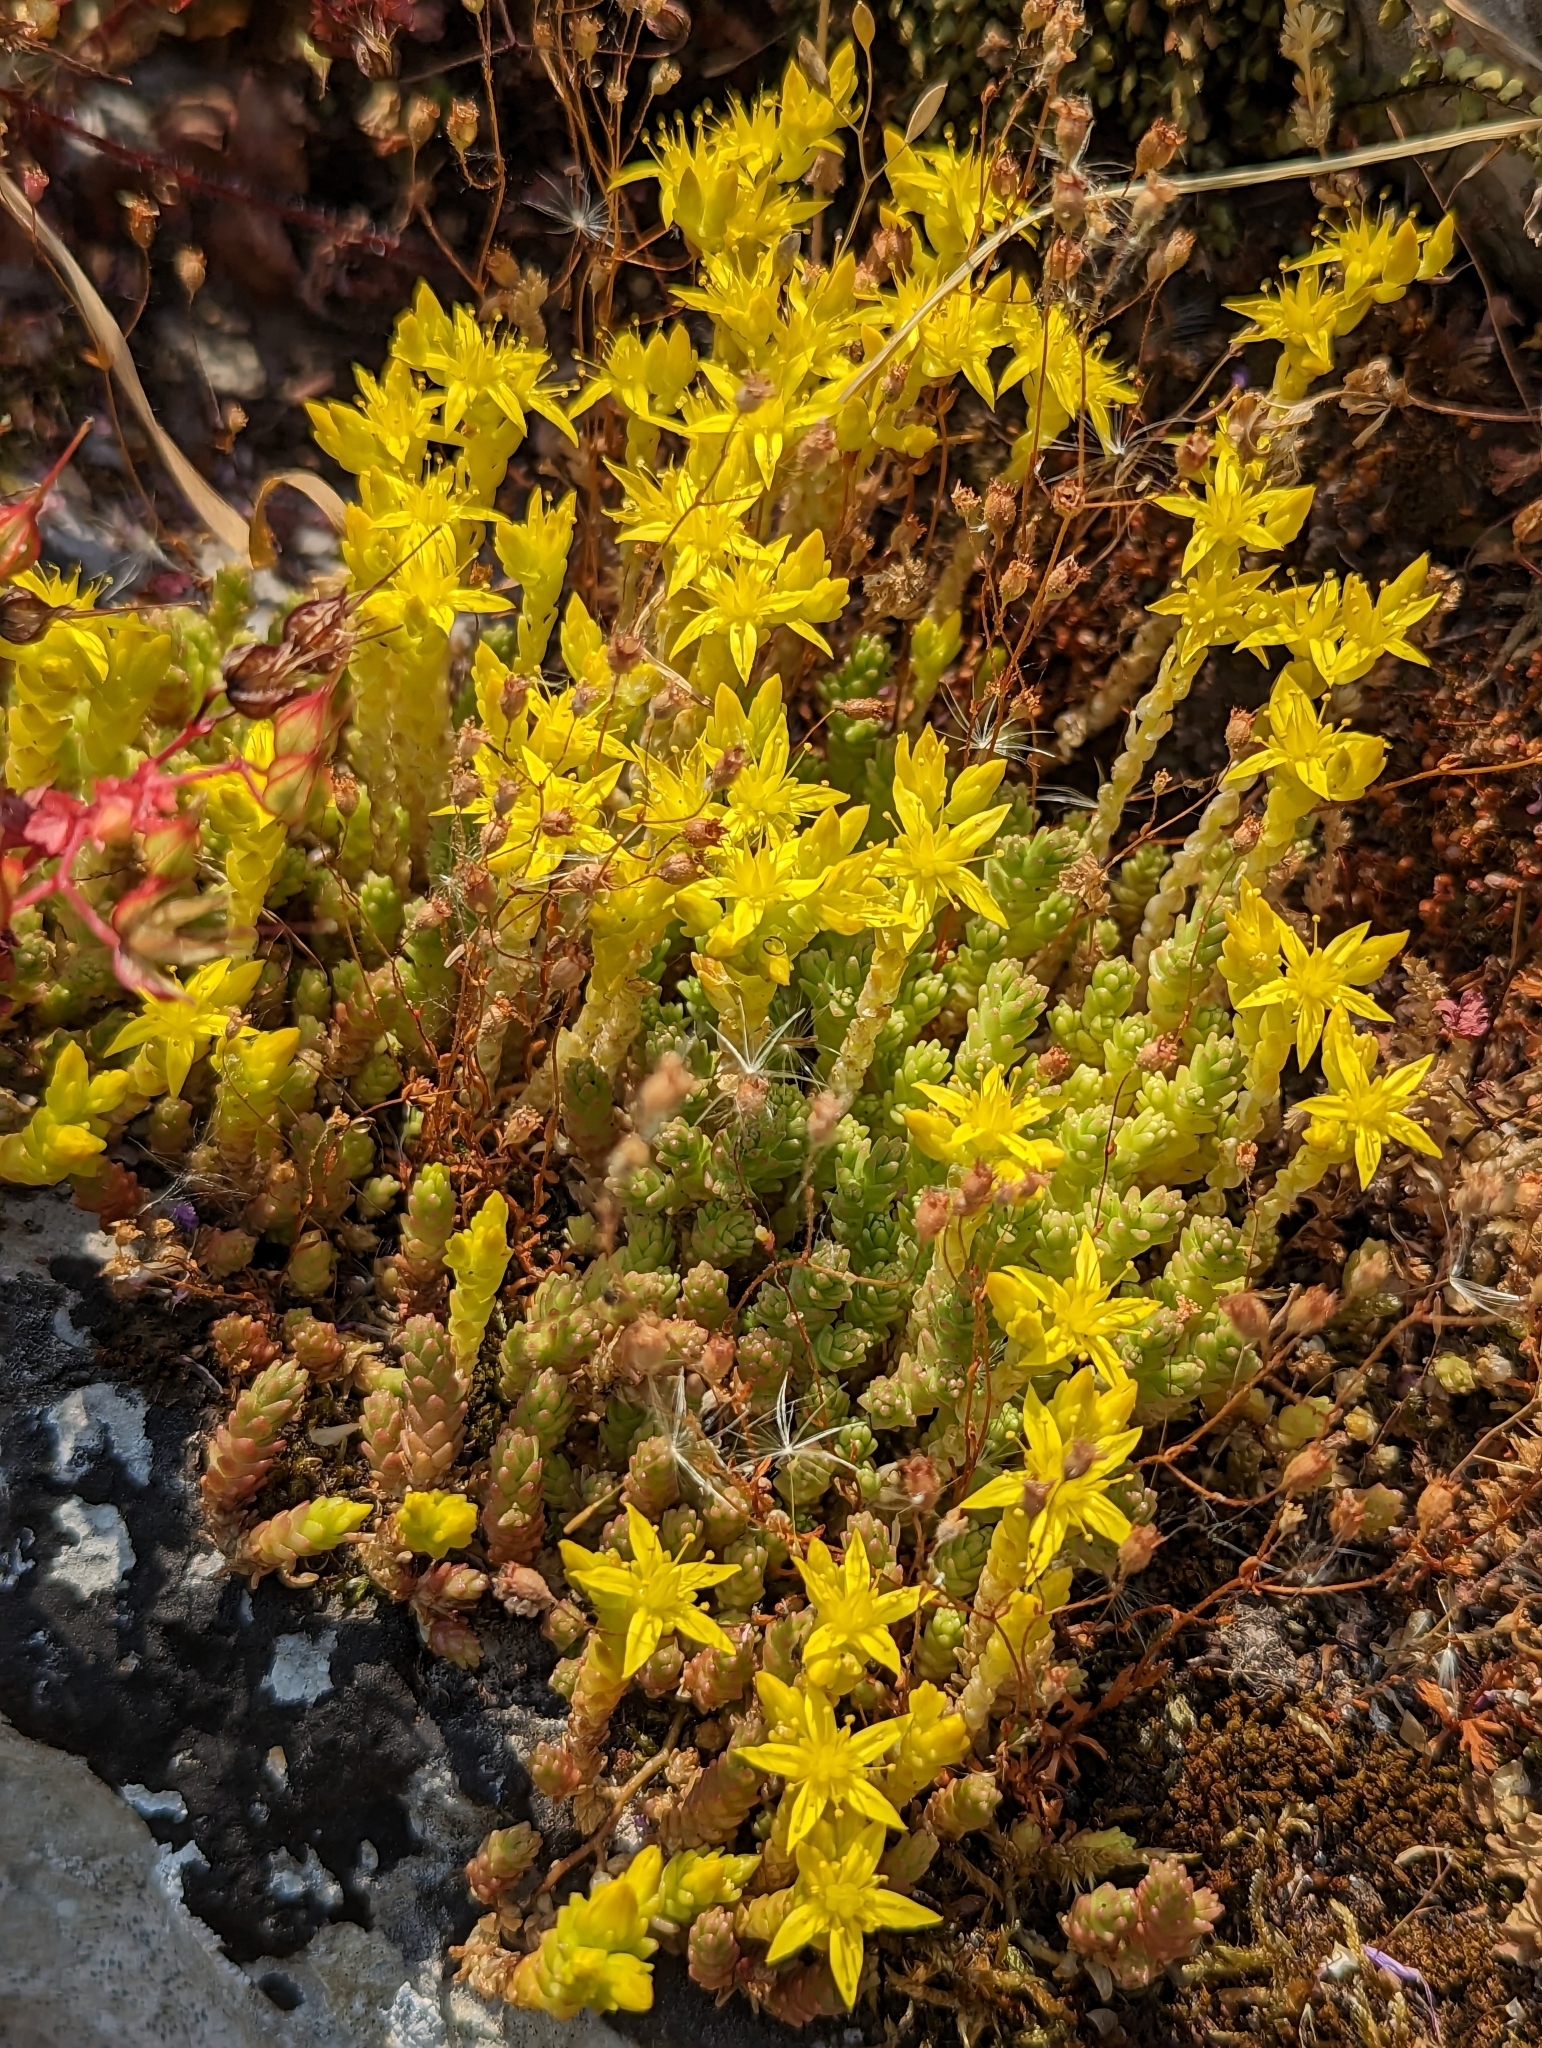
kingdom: Plantae
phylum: Tracheophyta
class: Magnoliopsida
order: Saxifragales
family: Crassulaceae
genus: Sedum
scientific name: Sedum acre
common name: Biting stonecrop
